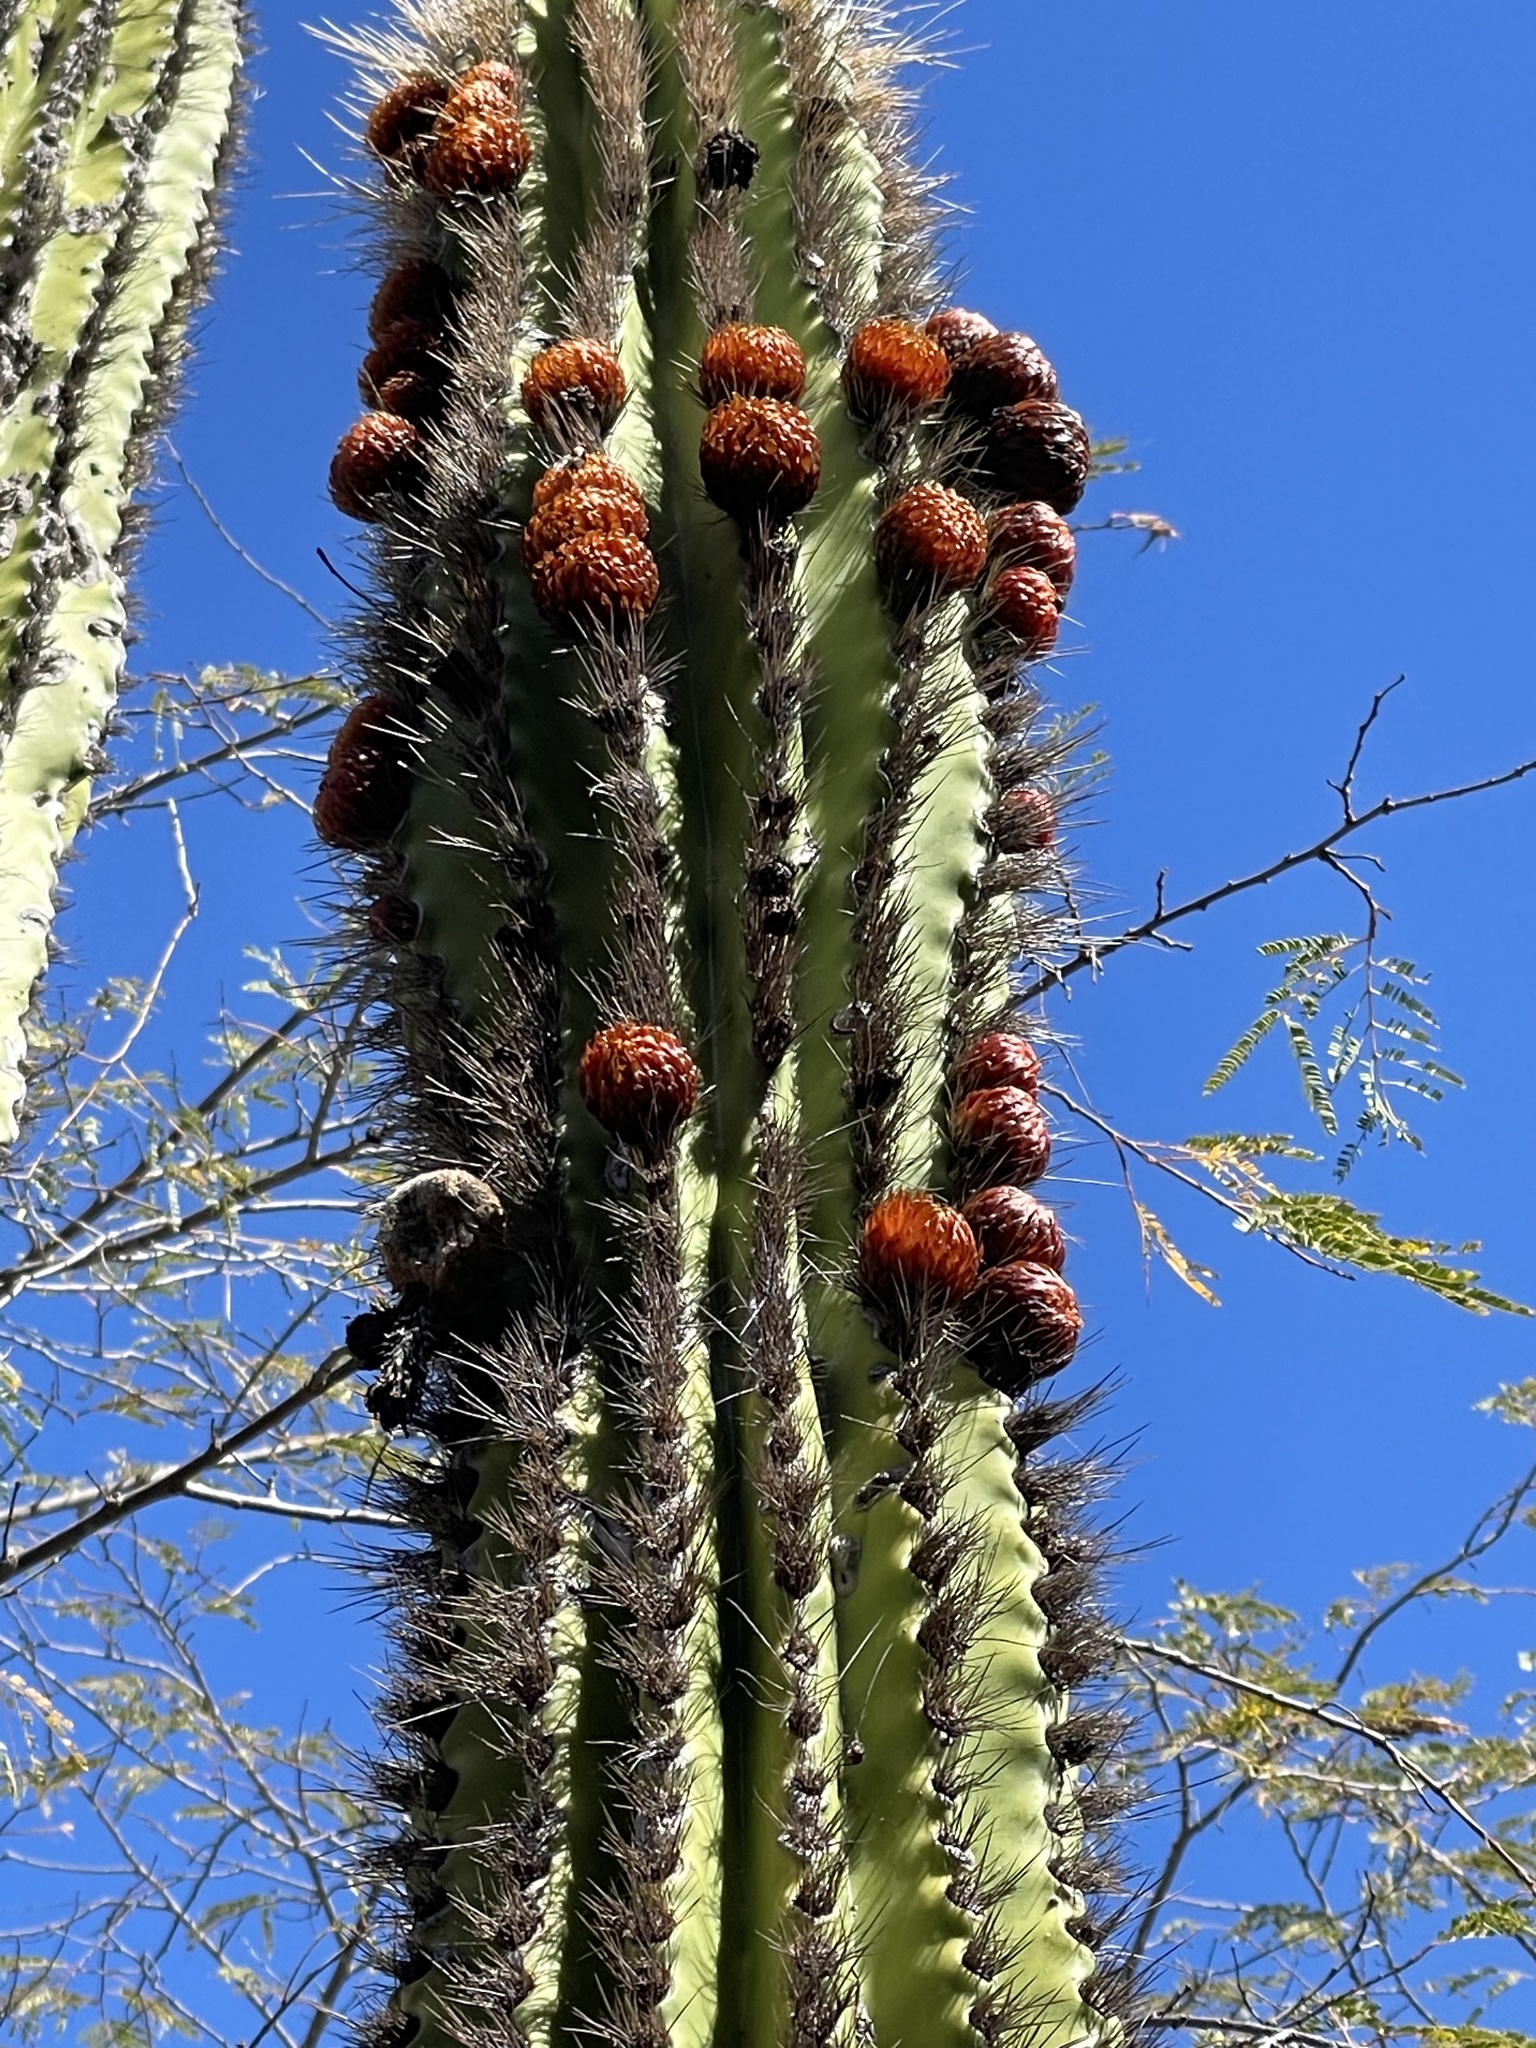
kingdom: Plantae
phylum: Tracheophyta
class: Magnoliopsida
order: Caryophyllales
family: Cactaceae
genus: Pachycereus
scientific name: Pachycereus pecten-aboriginum
